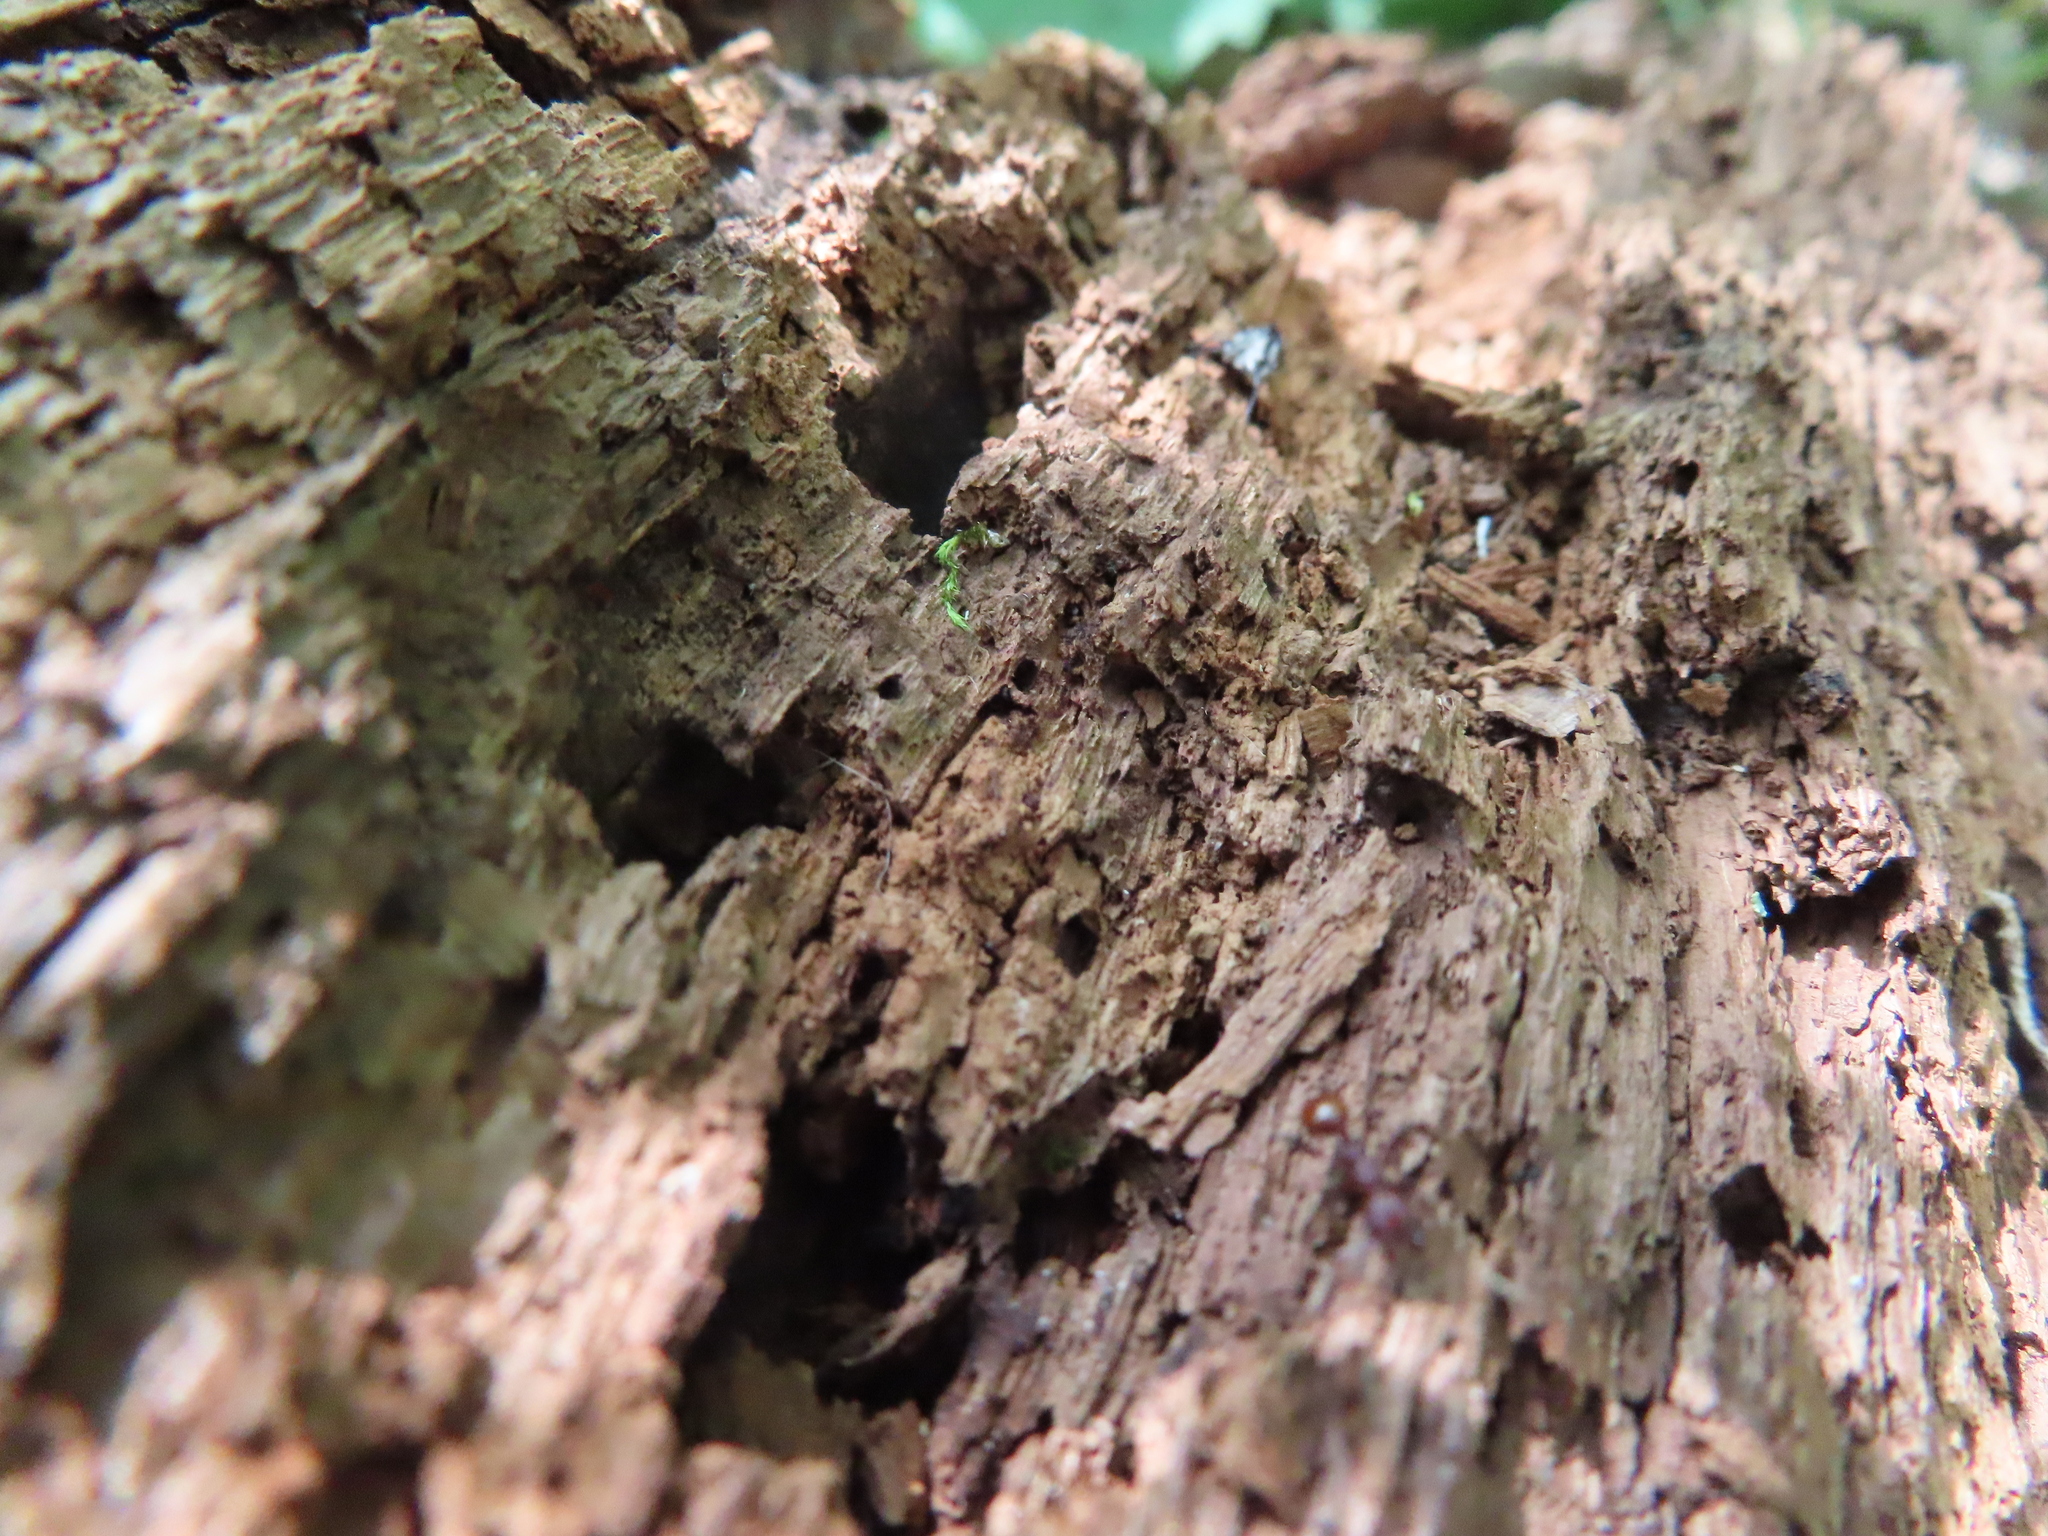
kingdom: Animalia
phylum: Arthropoda
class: Insecta
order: Hymenoptera
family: Formicidae
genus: Aphaenogaster
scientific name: Aphaenogaster tennesseensis
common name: Tennessee thread-waisted ant
